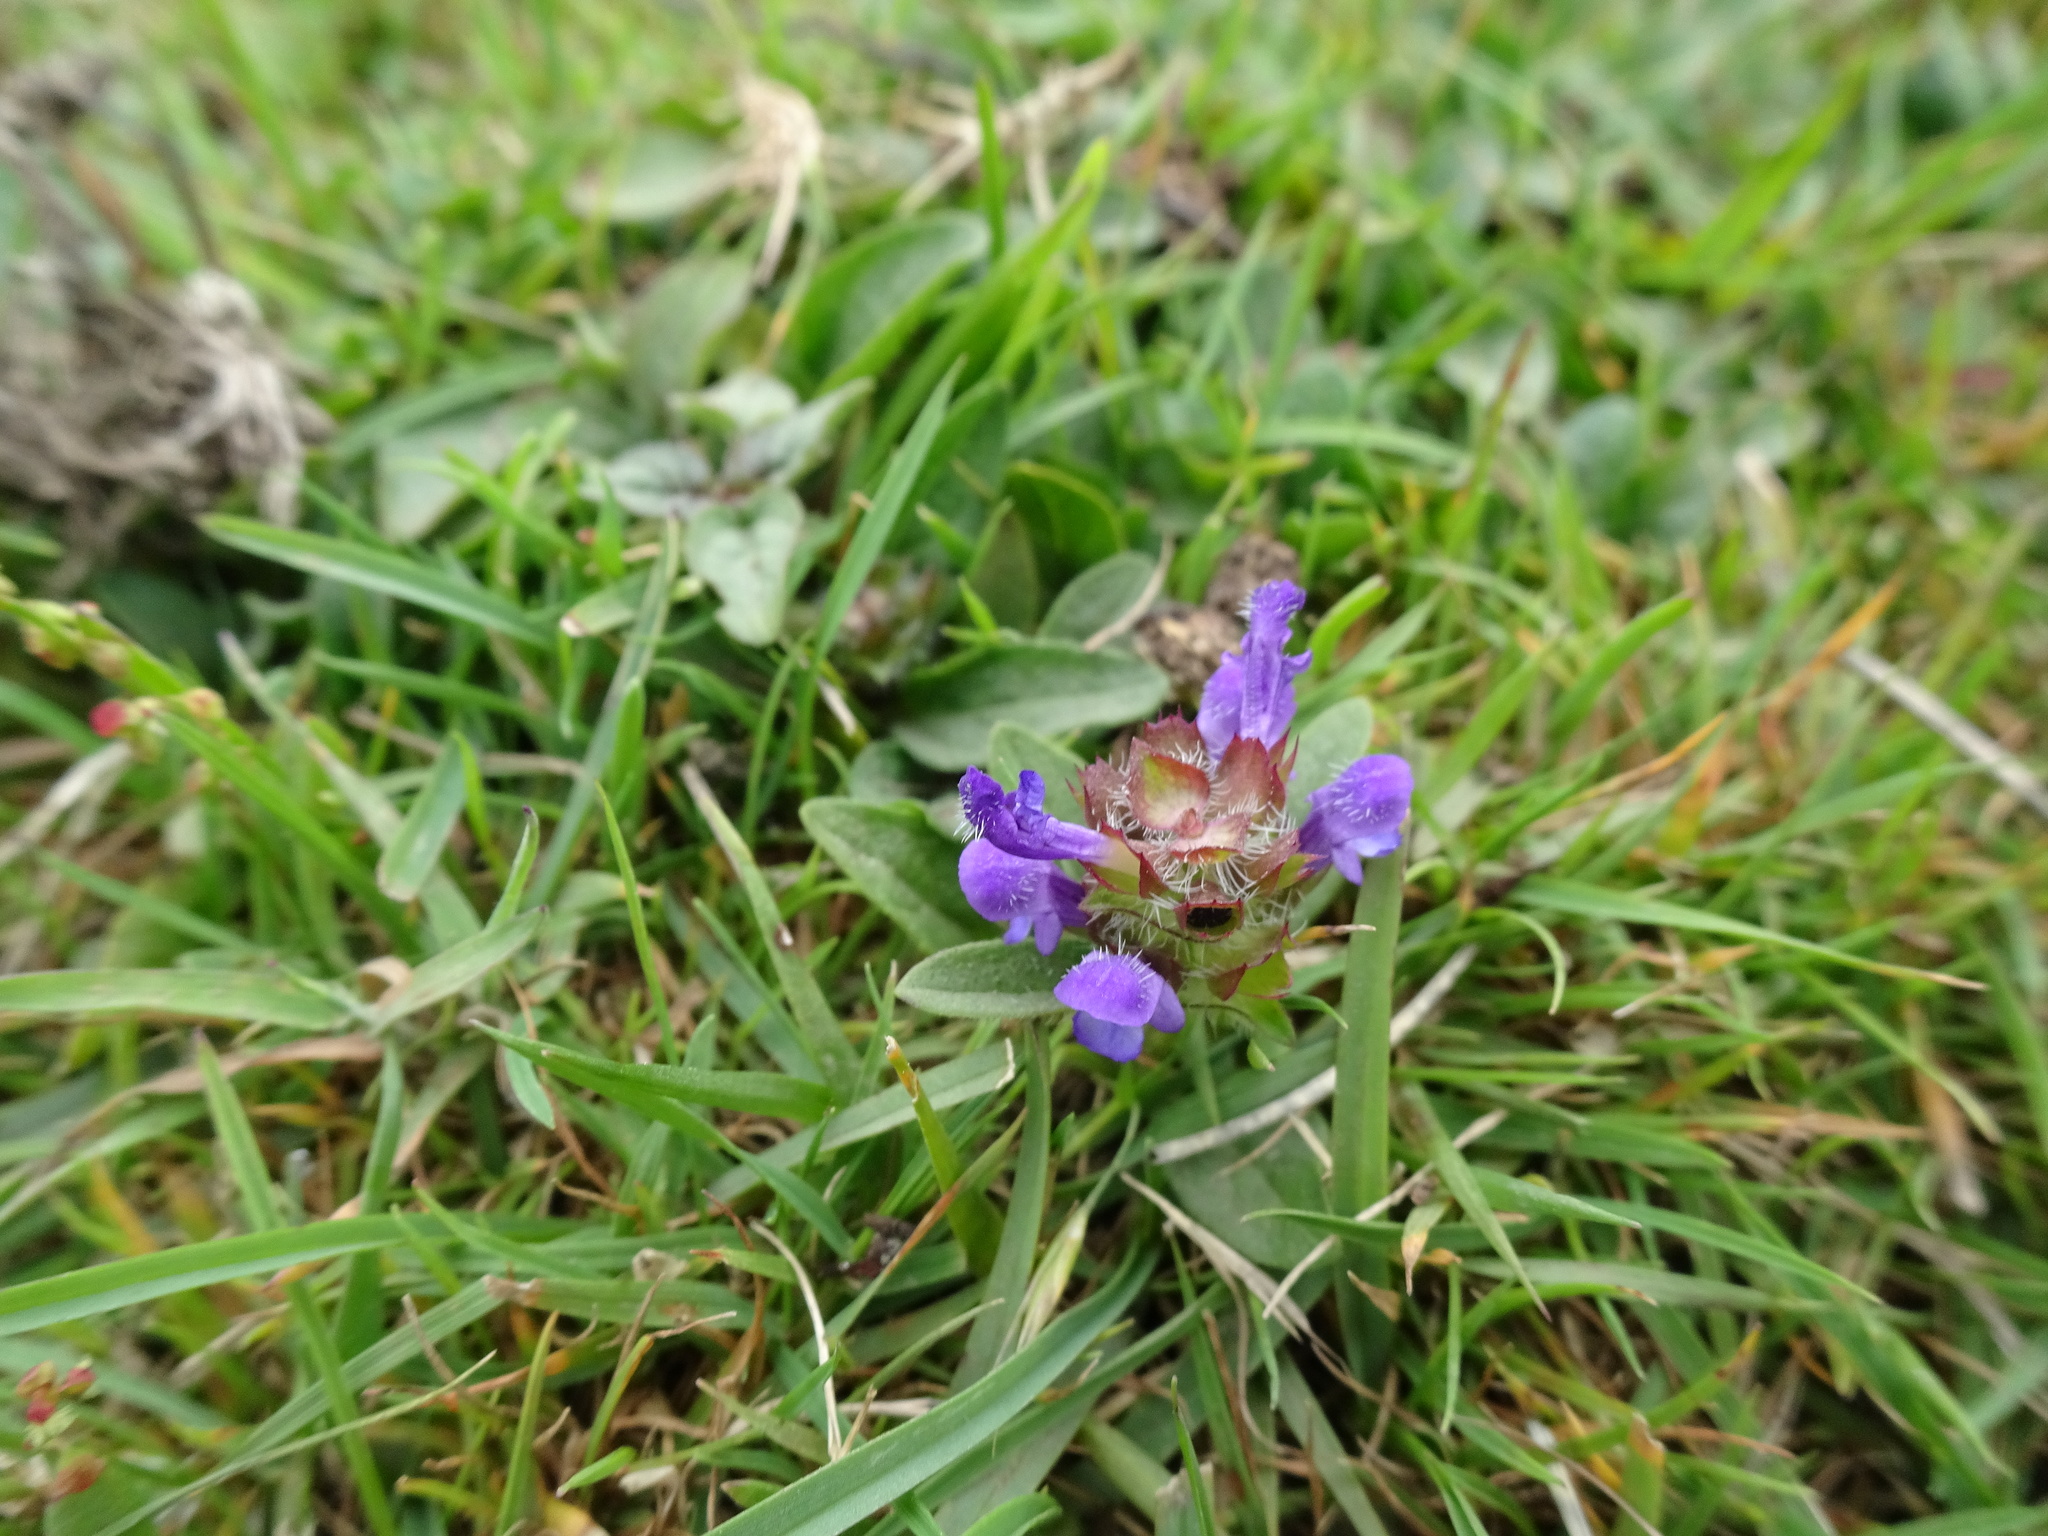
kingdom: Plantae
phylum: Tracheophyta
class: Magnoliopsida
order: Lamiales
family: Lamiaceae
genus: Prunella
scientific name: Prunella vulgaris
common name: Heal-all
